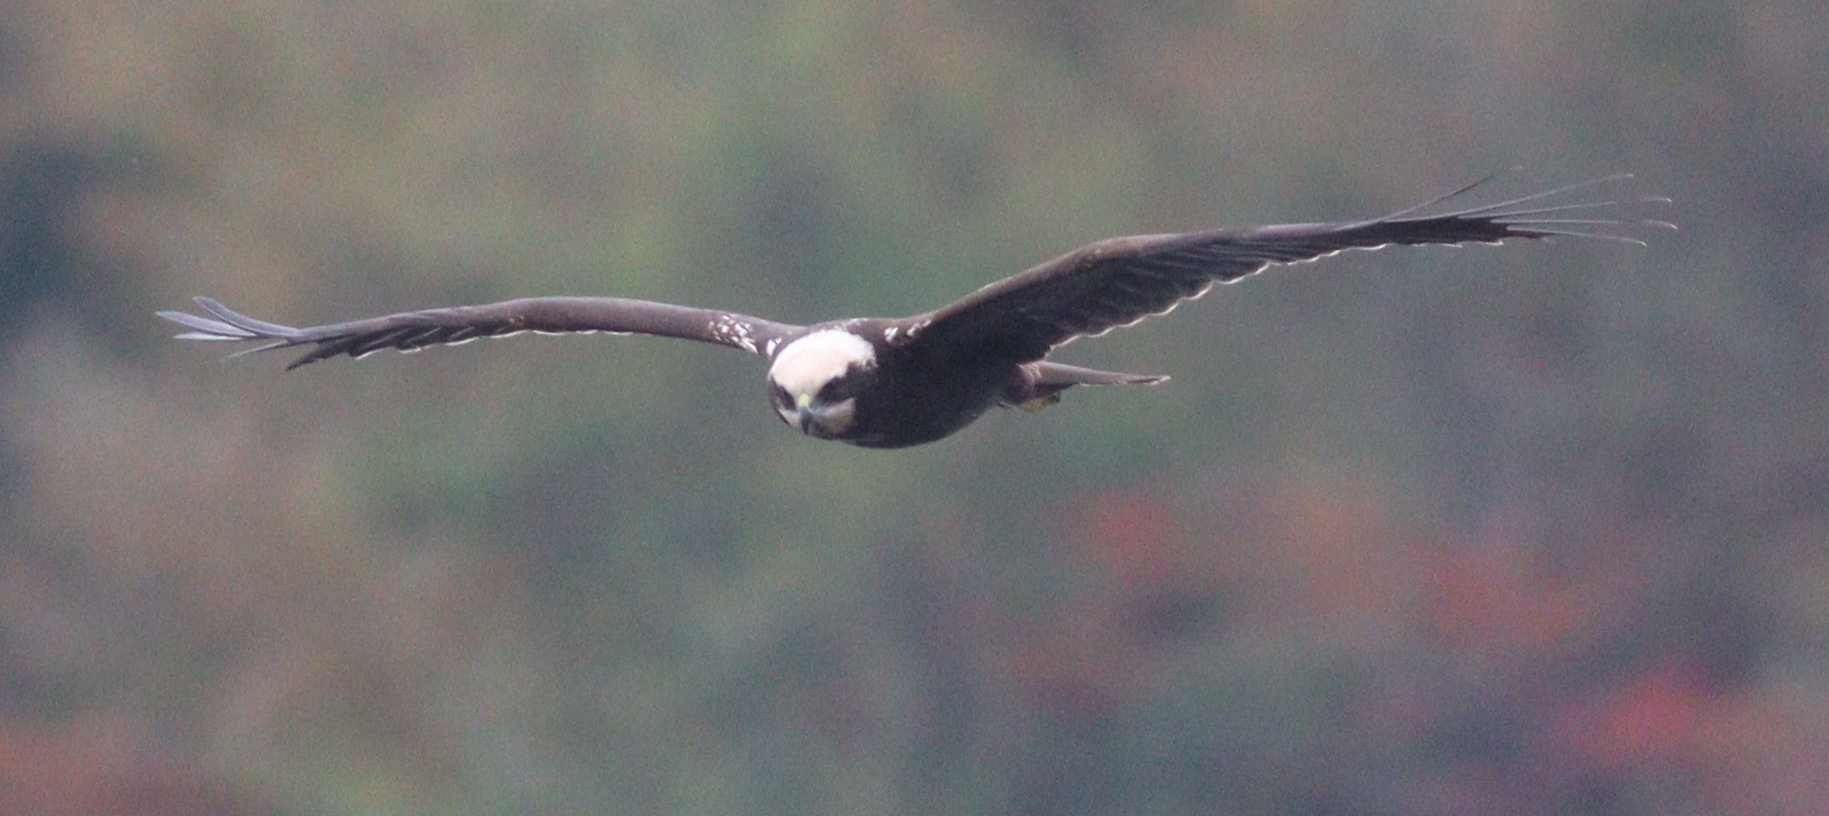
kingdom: Animalia
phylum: Chordata
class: Aves
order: Accipitriformes
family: Accipitridae
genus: Circus
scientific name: Circus aeruginosus
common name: Western marsh harrier
